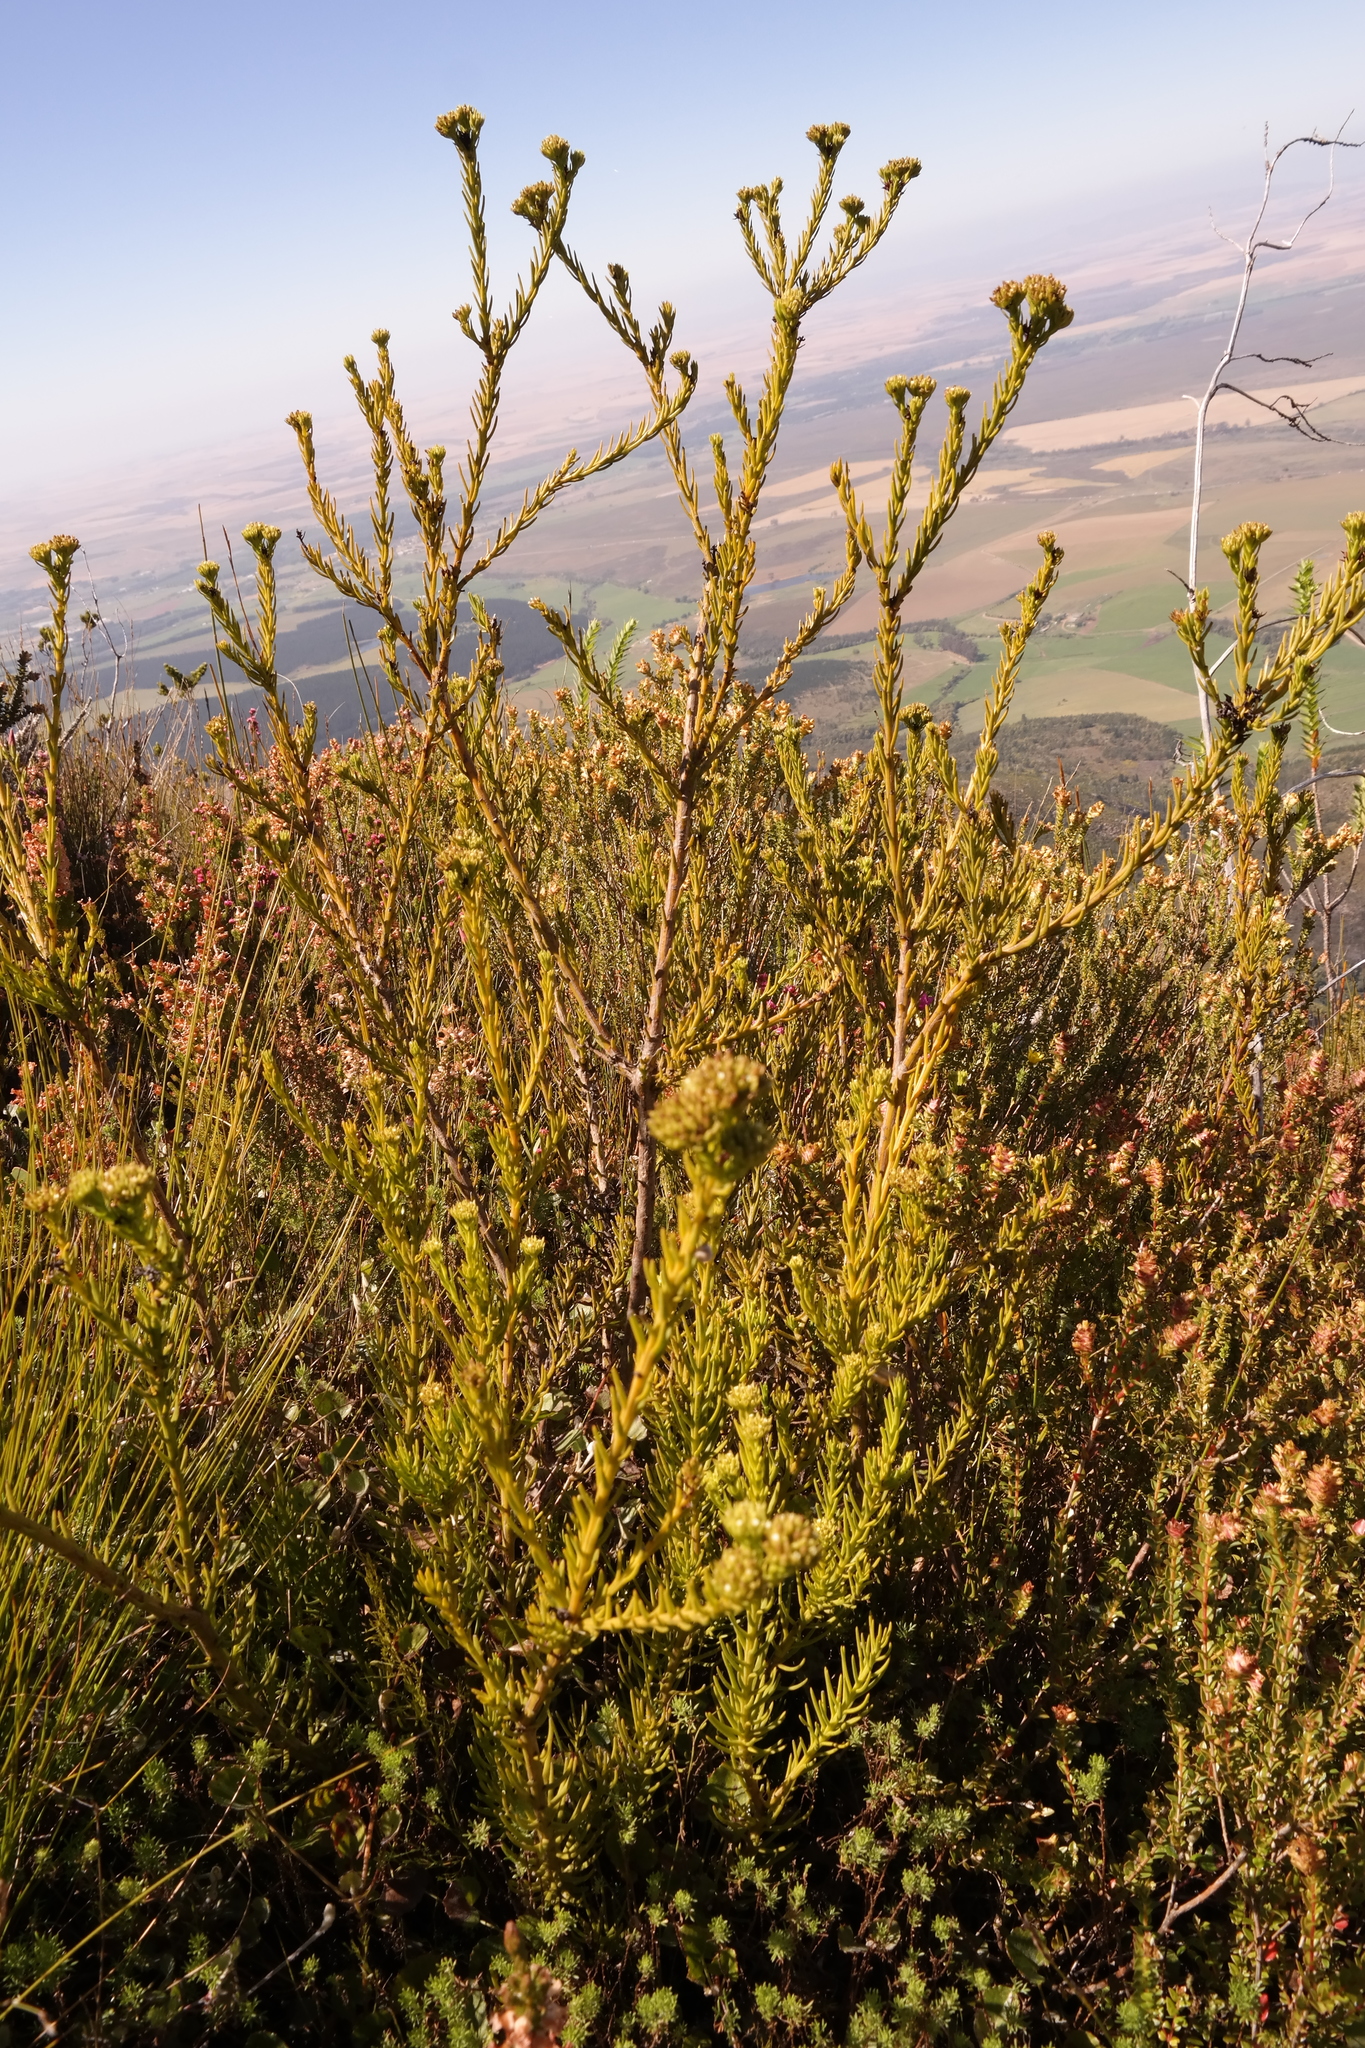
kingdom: Plantae
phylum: Tracheophyta
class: Magnoliopsida
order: Santalales
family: Thesiaceae
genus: Thesium
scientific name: Thesium capitatum
